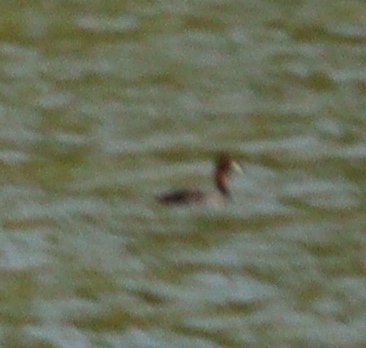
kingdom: Animalia
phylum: Chordata
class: Aves
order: Podicipediformes
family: Podicipedidae
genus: Tachybaptus
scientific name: Tachybaptus ruficollis
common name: Little grebe
